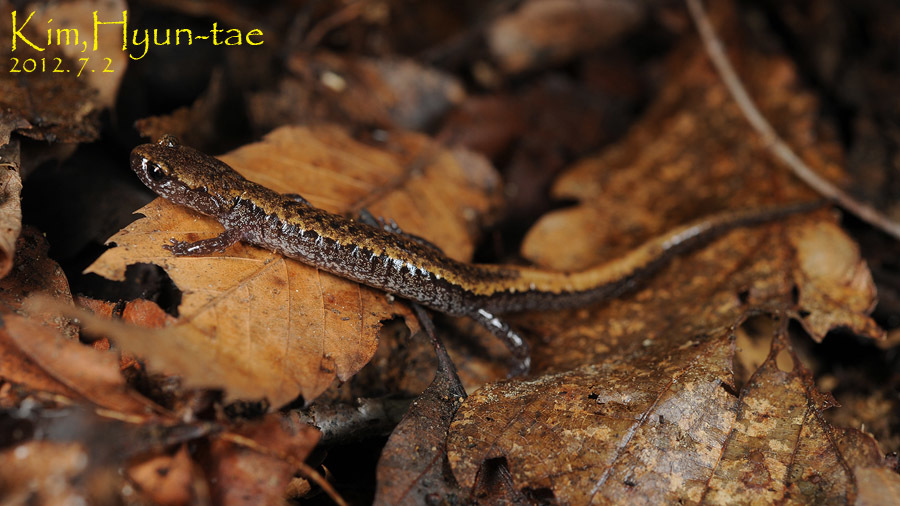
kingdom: Animalia
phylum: Chordata
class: Amphibia
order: Caudata
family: Plethodontidae
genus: Karsenia
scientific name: Karsenia koreana
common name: Korean crevice salamander
